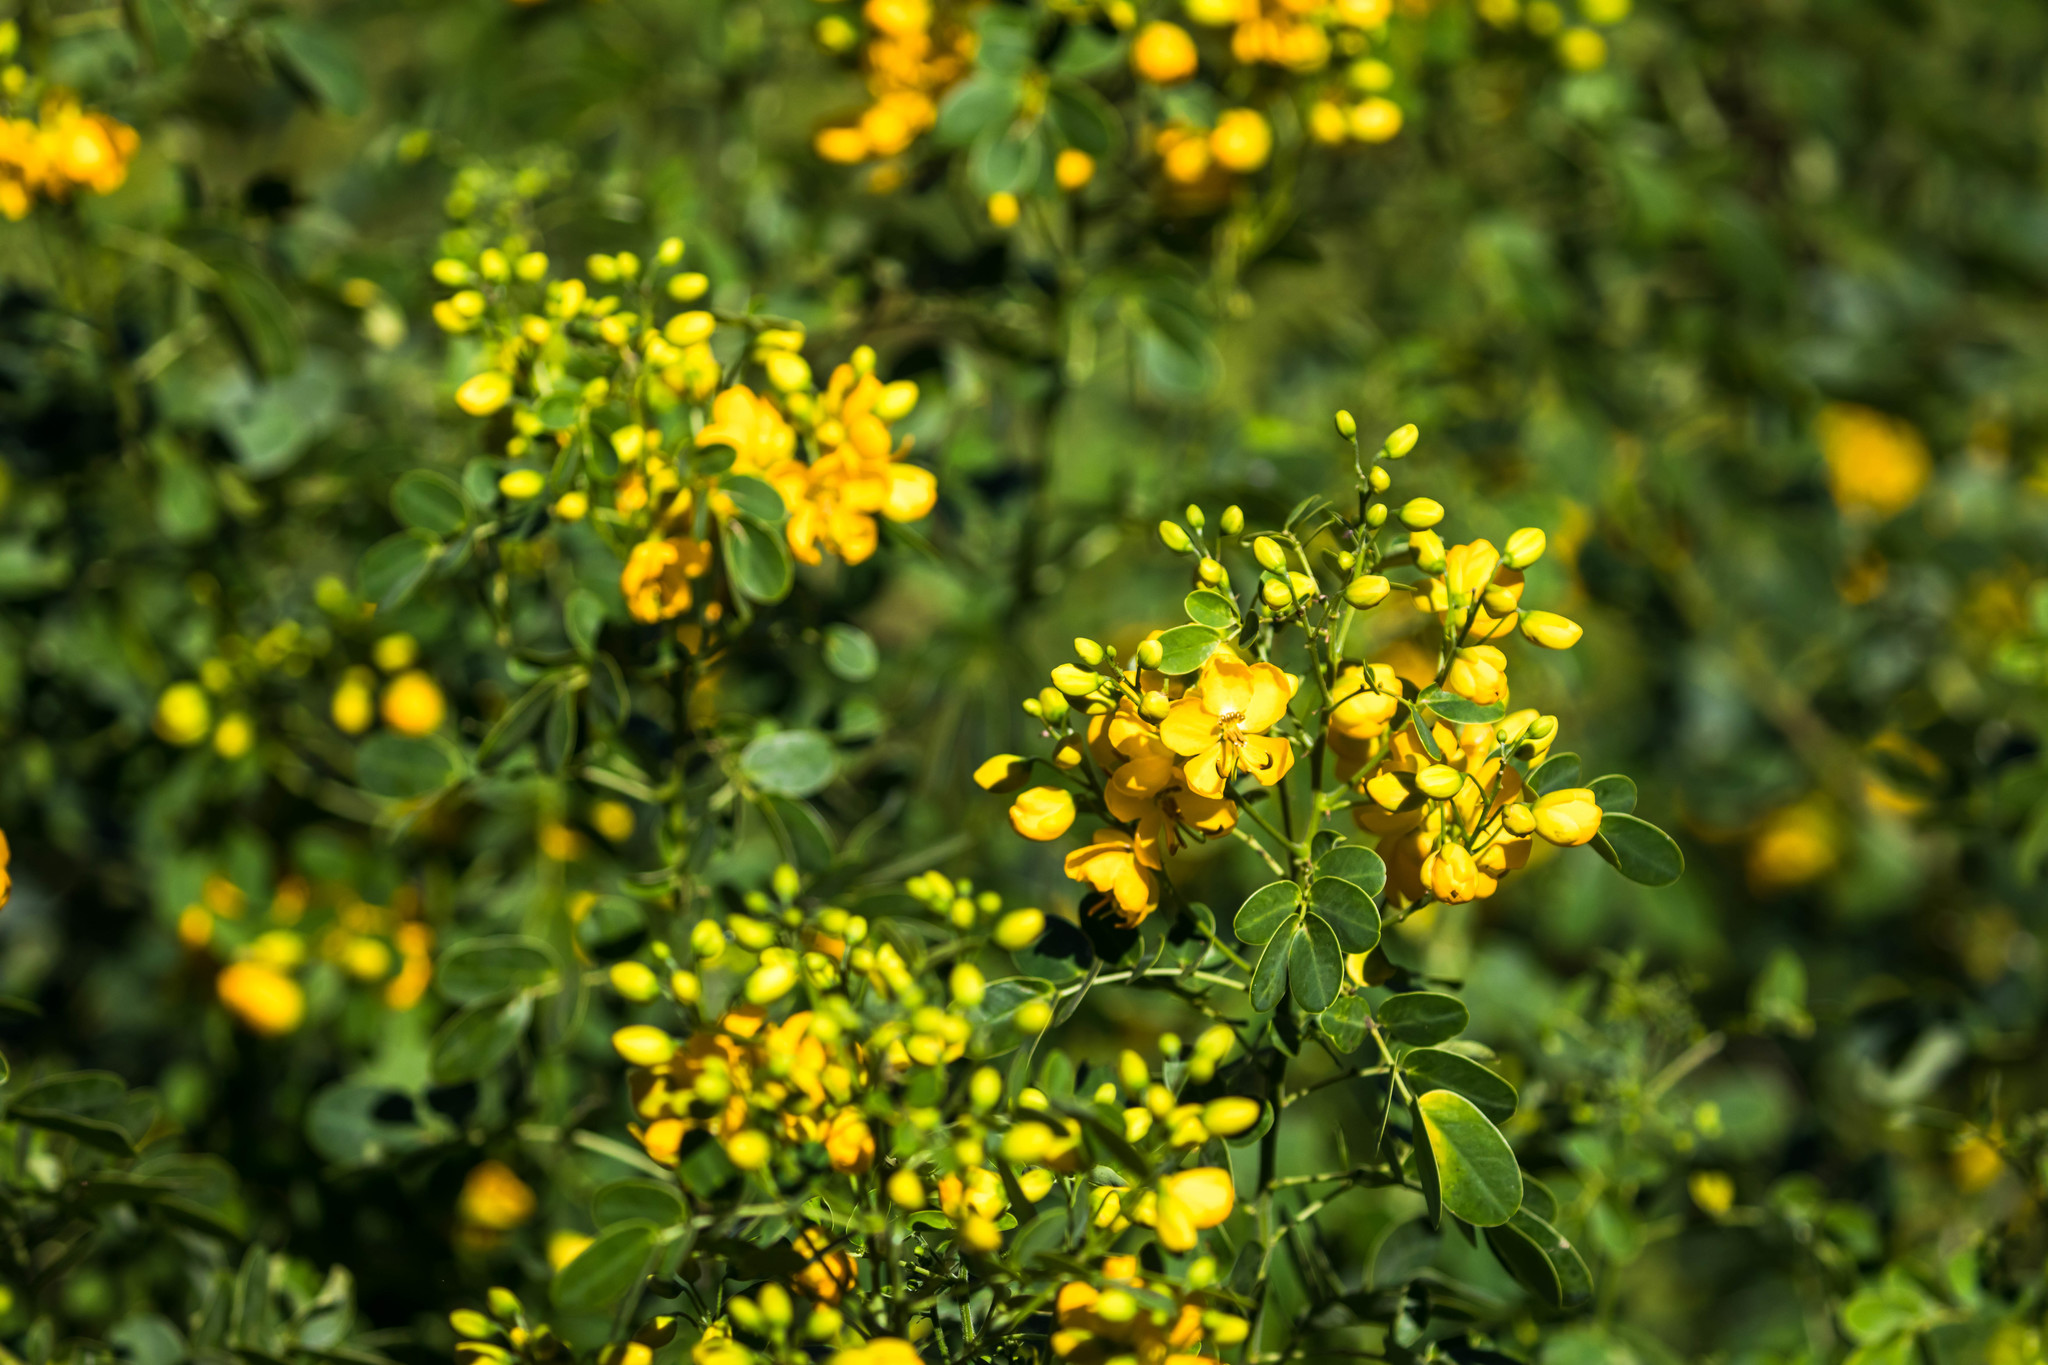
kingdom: Plantae
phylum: Tracheophyta
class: Magnoliopsida
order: Fabales
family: Fabaceae
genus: Senna
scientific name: Senna pendula
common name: Easter cassia
